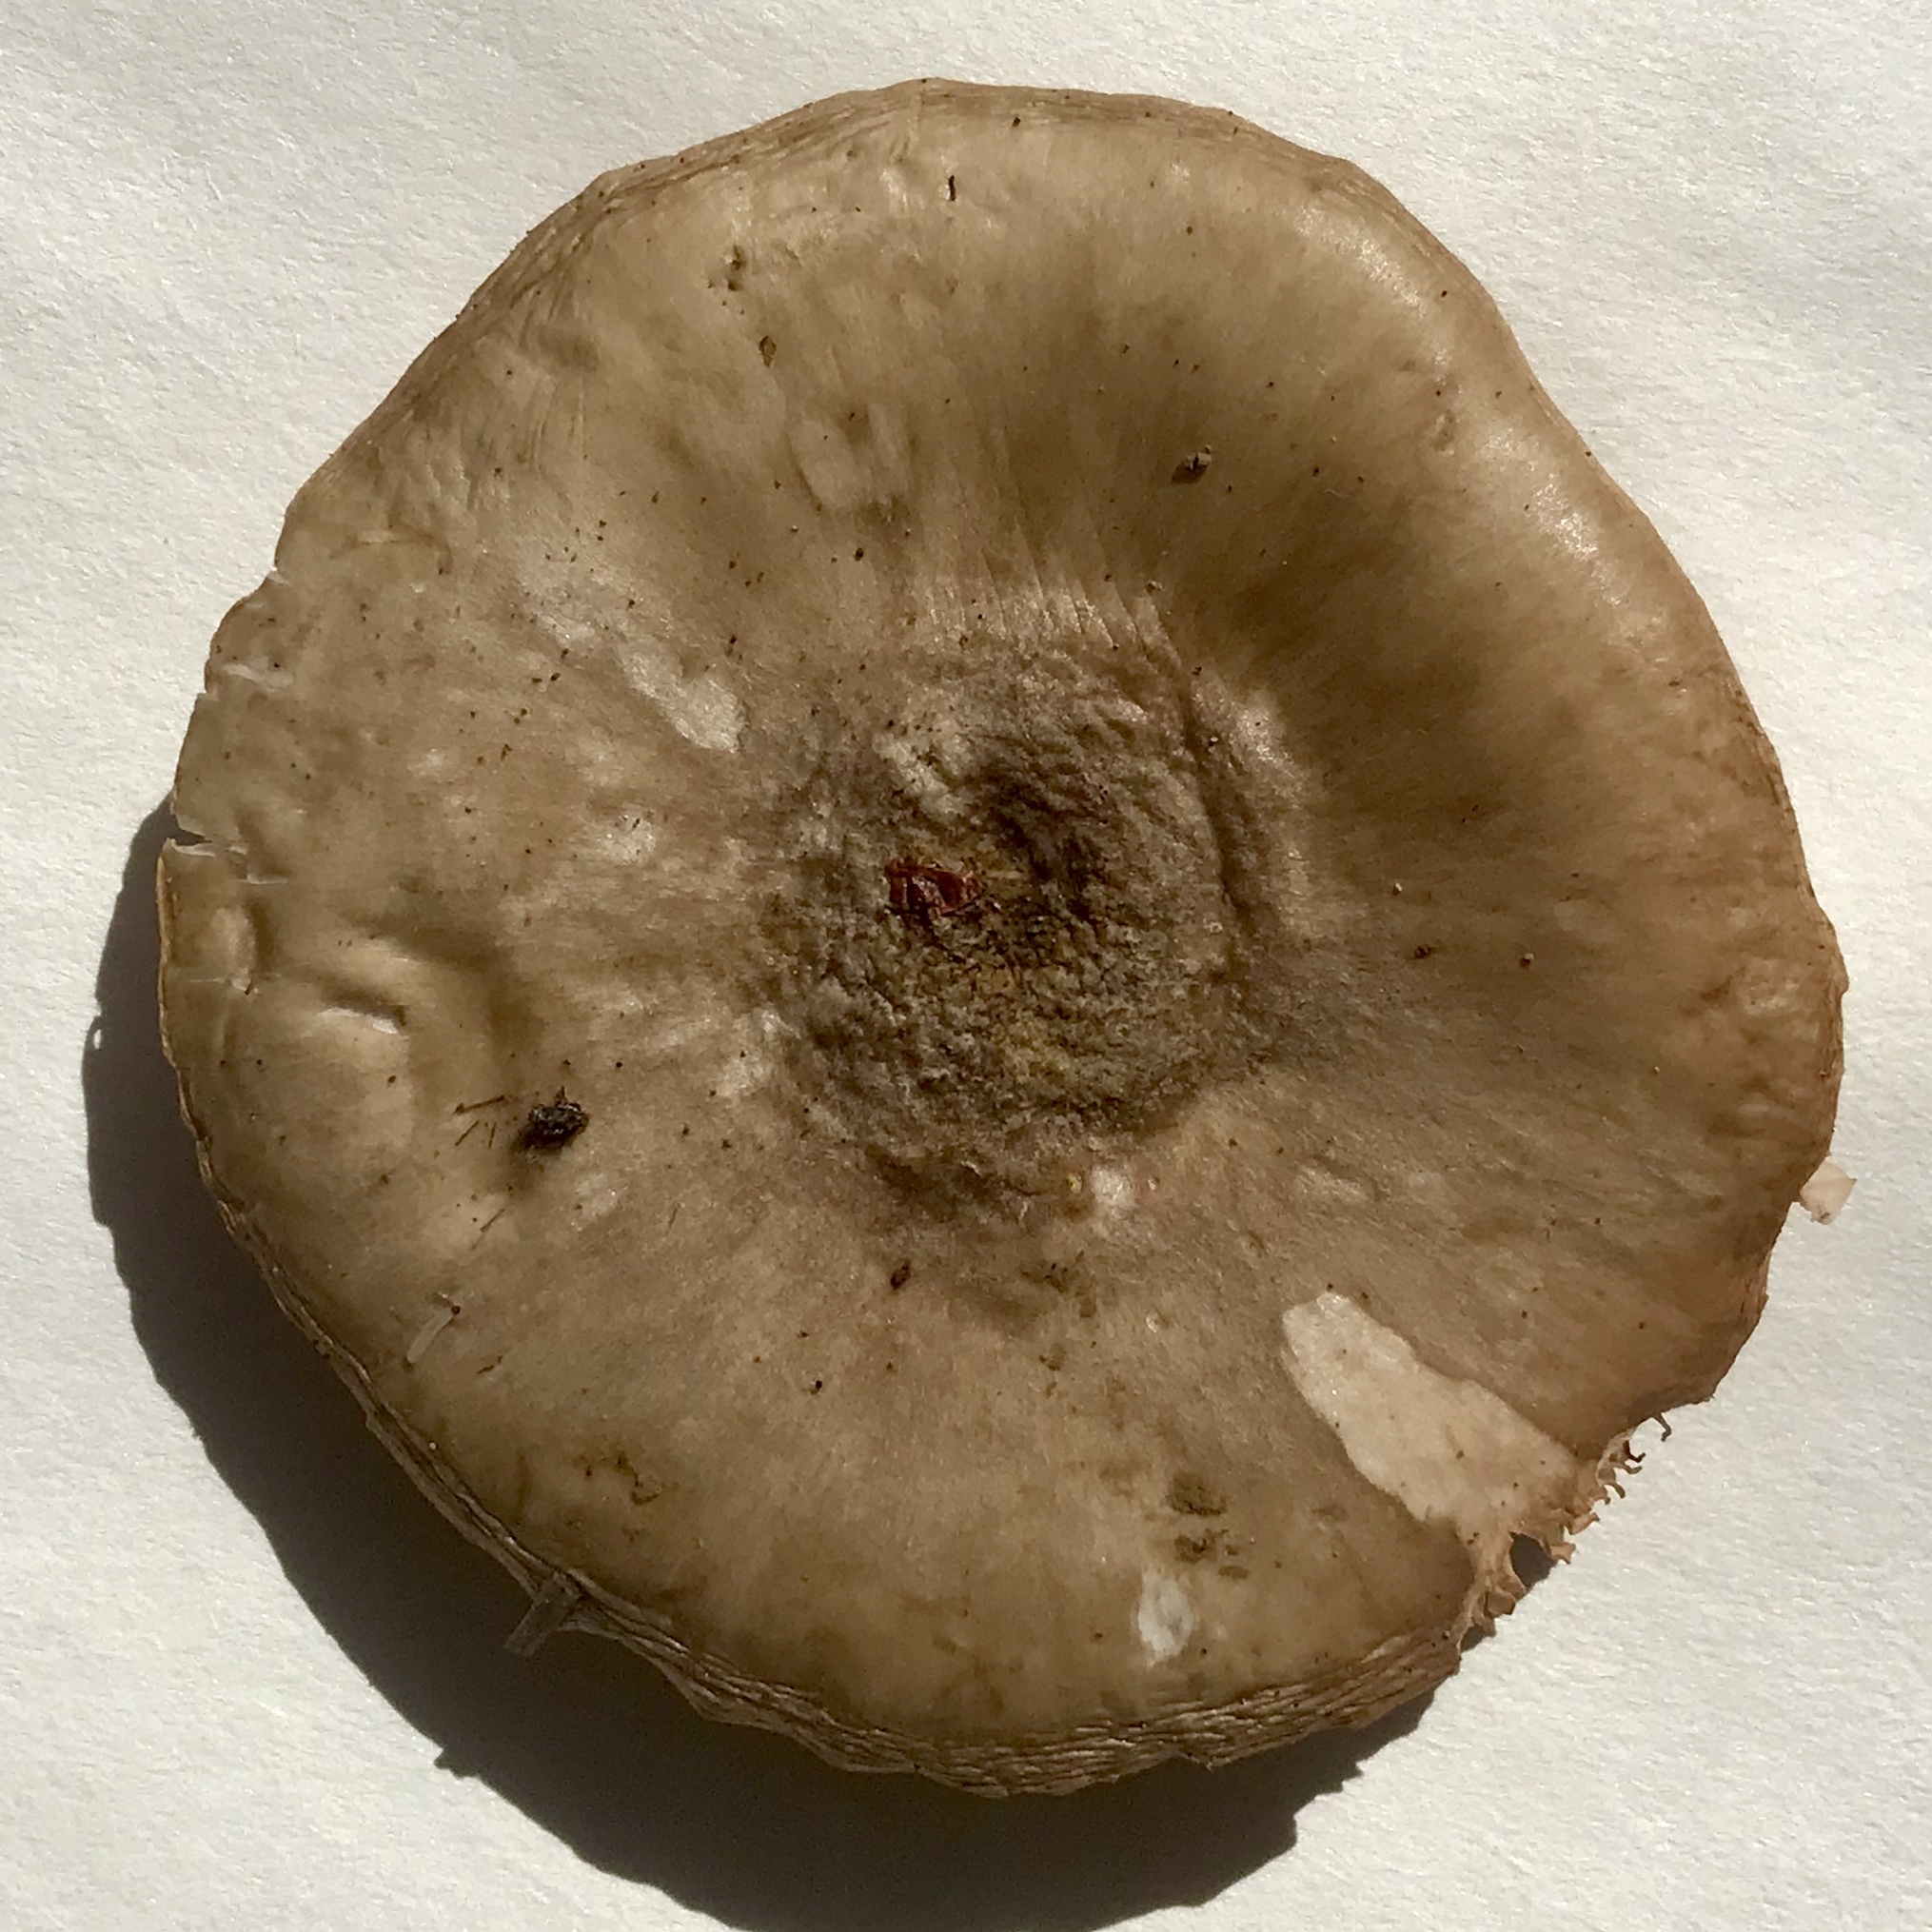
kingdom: Fungi
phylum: Basidiomycota
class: Agaricomycetes
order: Agaricales
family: Pluteaceae
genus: Pluteus
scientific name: Pluteus cervinus
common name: Deer shield
